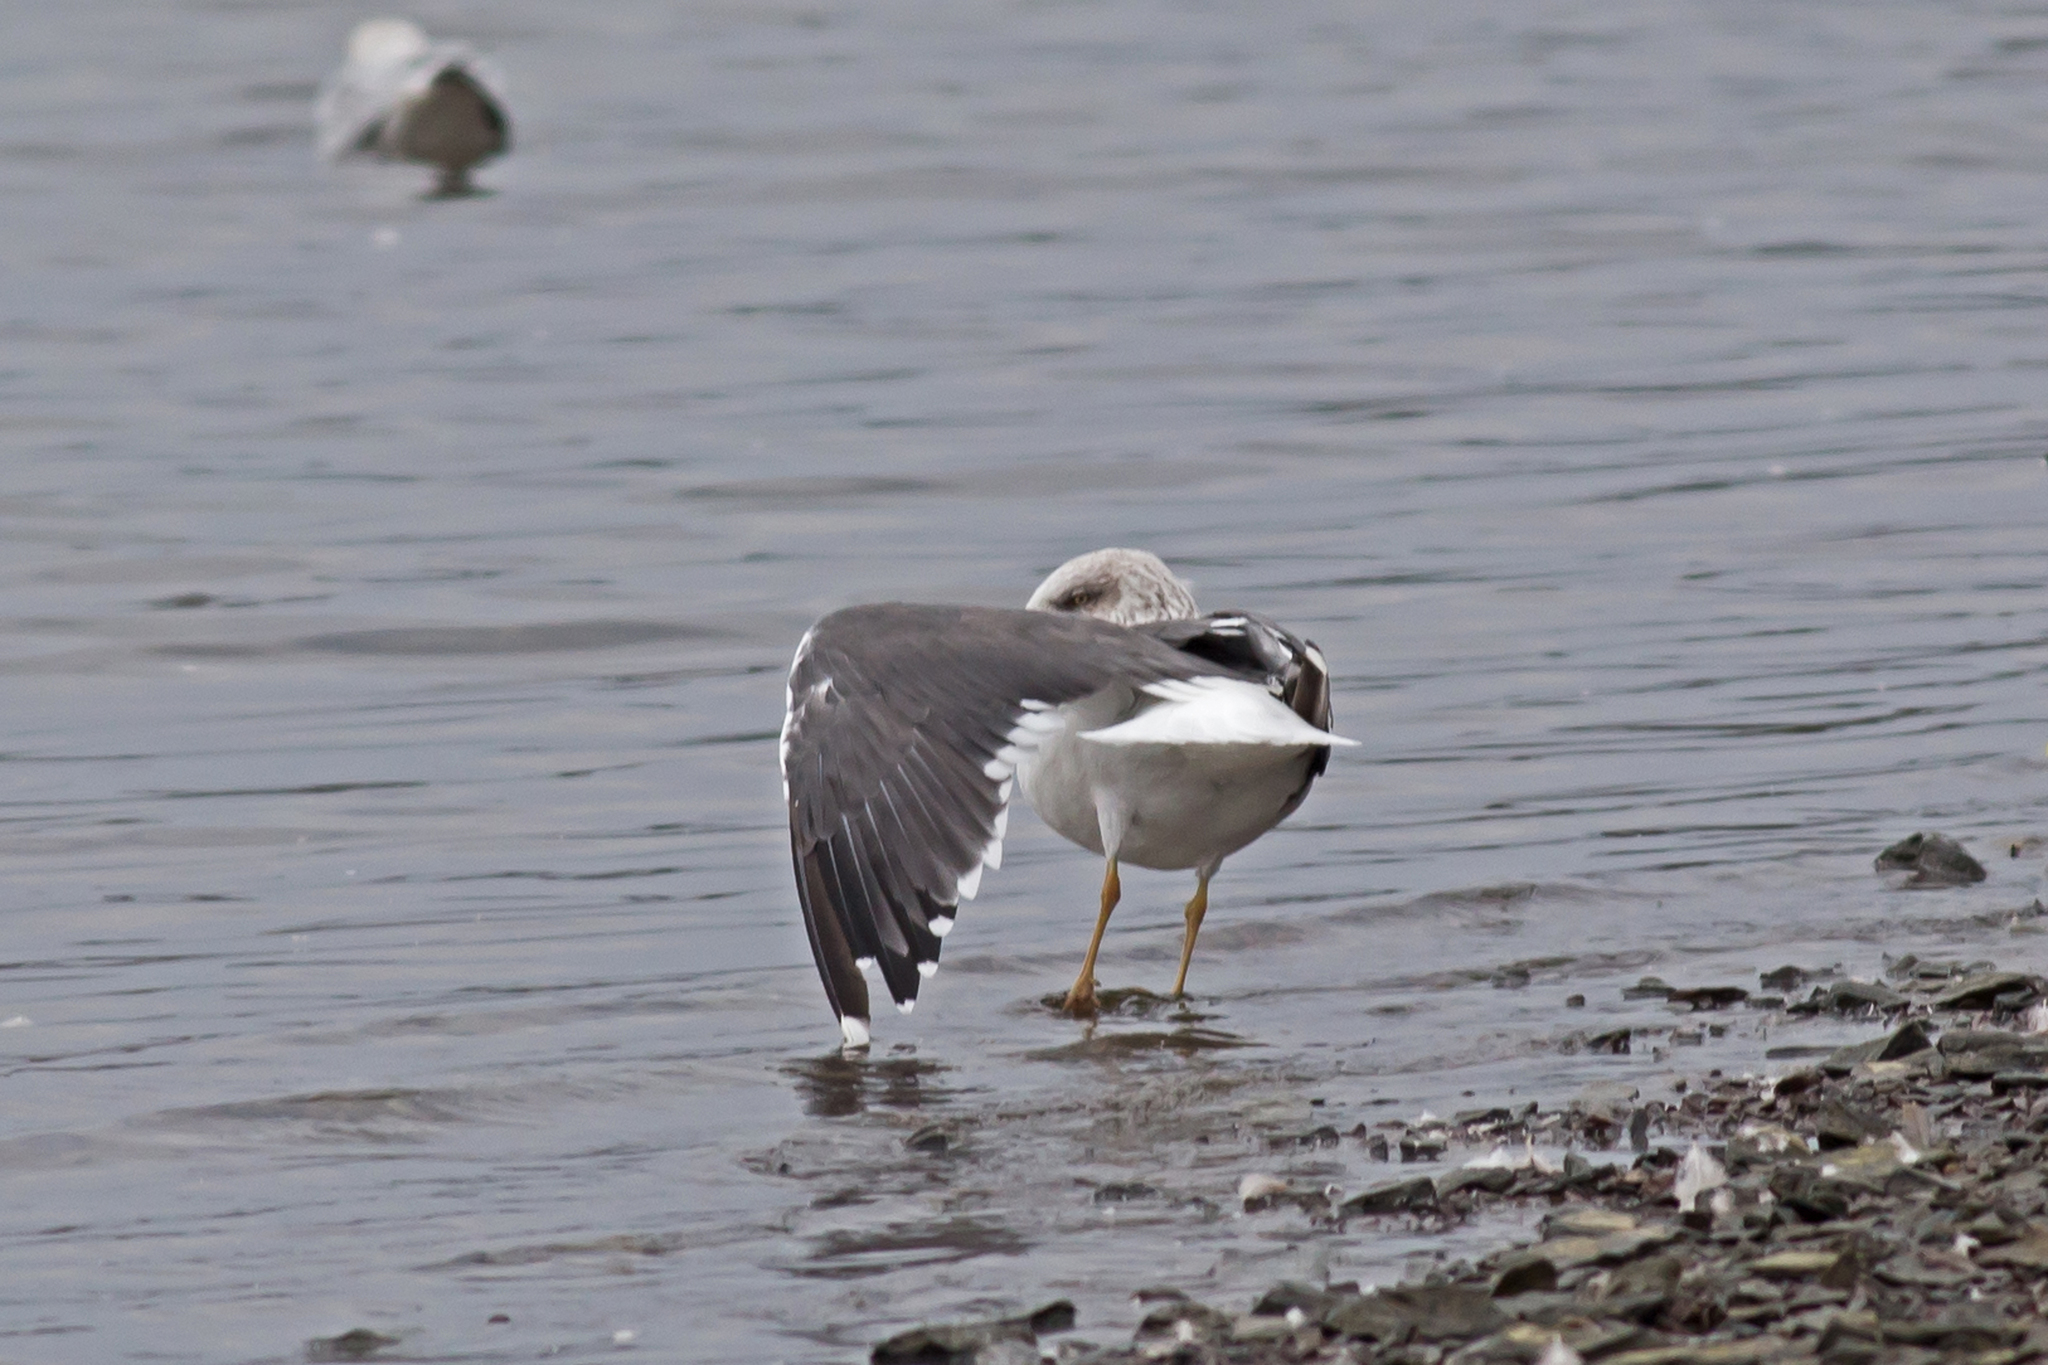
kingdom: Animalia
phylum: Chordata
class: Aves
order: Charadriiformes
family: Laridae
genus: Larus
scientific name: Larus fuscus
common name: Lesser black-backed gull
